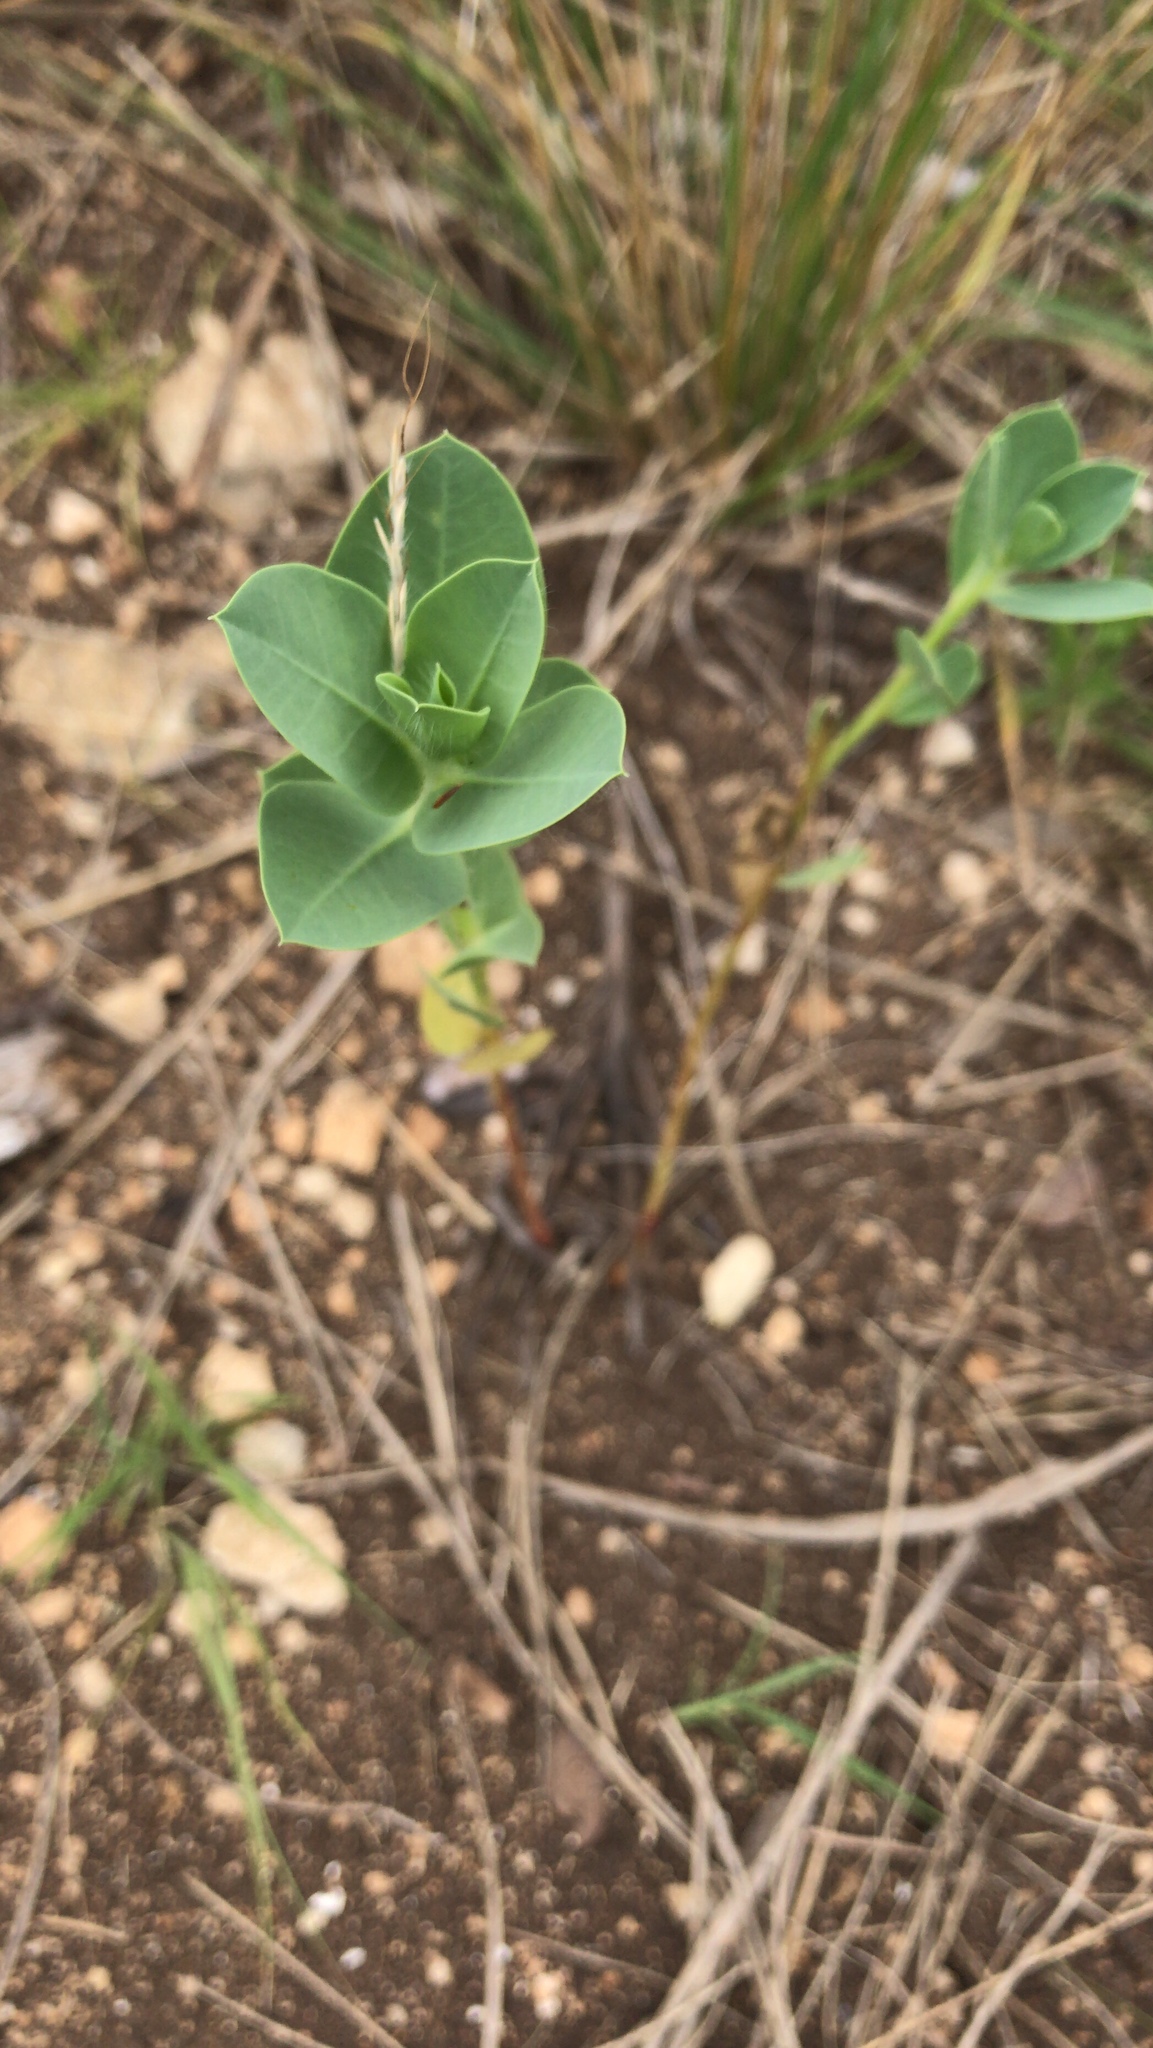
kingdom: Plantae
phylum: Tracheophyta
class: Magnoliopsida
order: Malpighiales
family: Euphorbiaceae
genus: Euphorbia
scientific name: Euphorbia marginata
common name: Ghostweed
